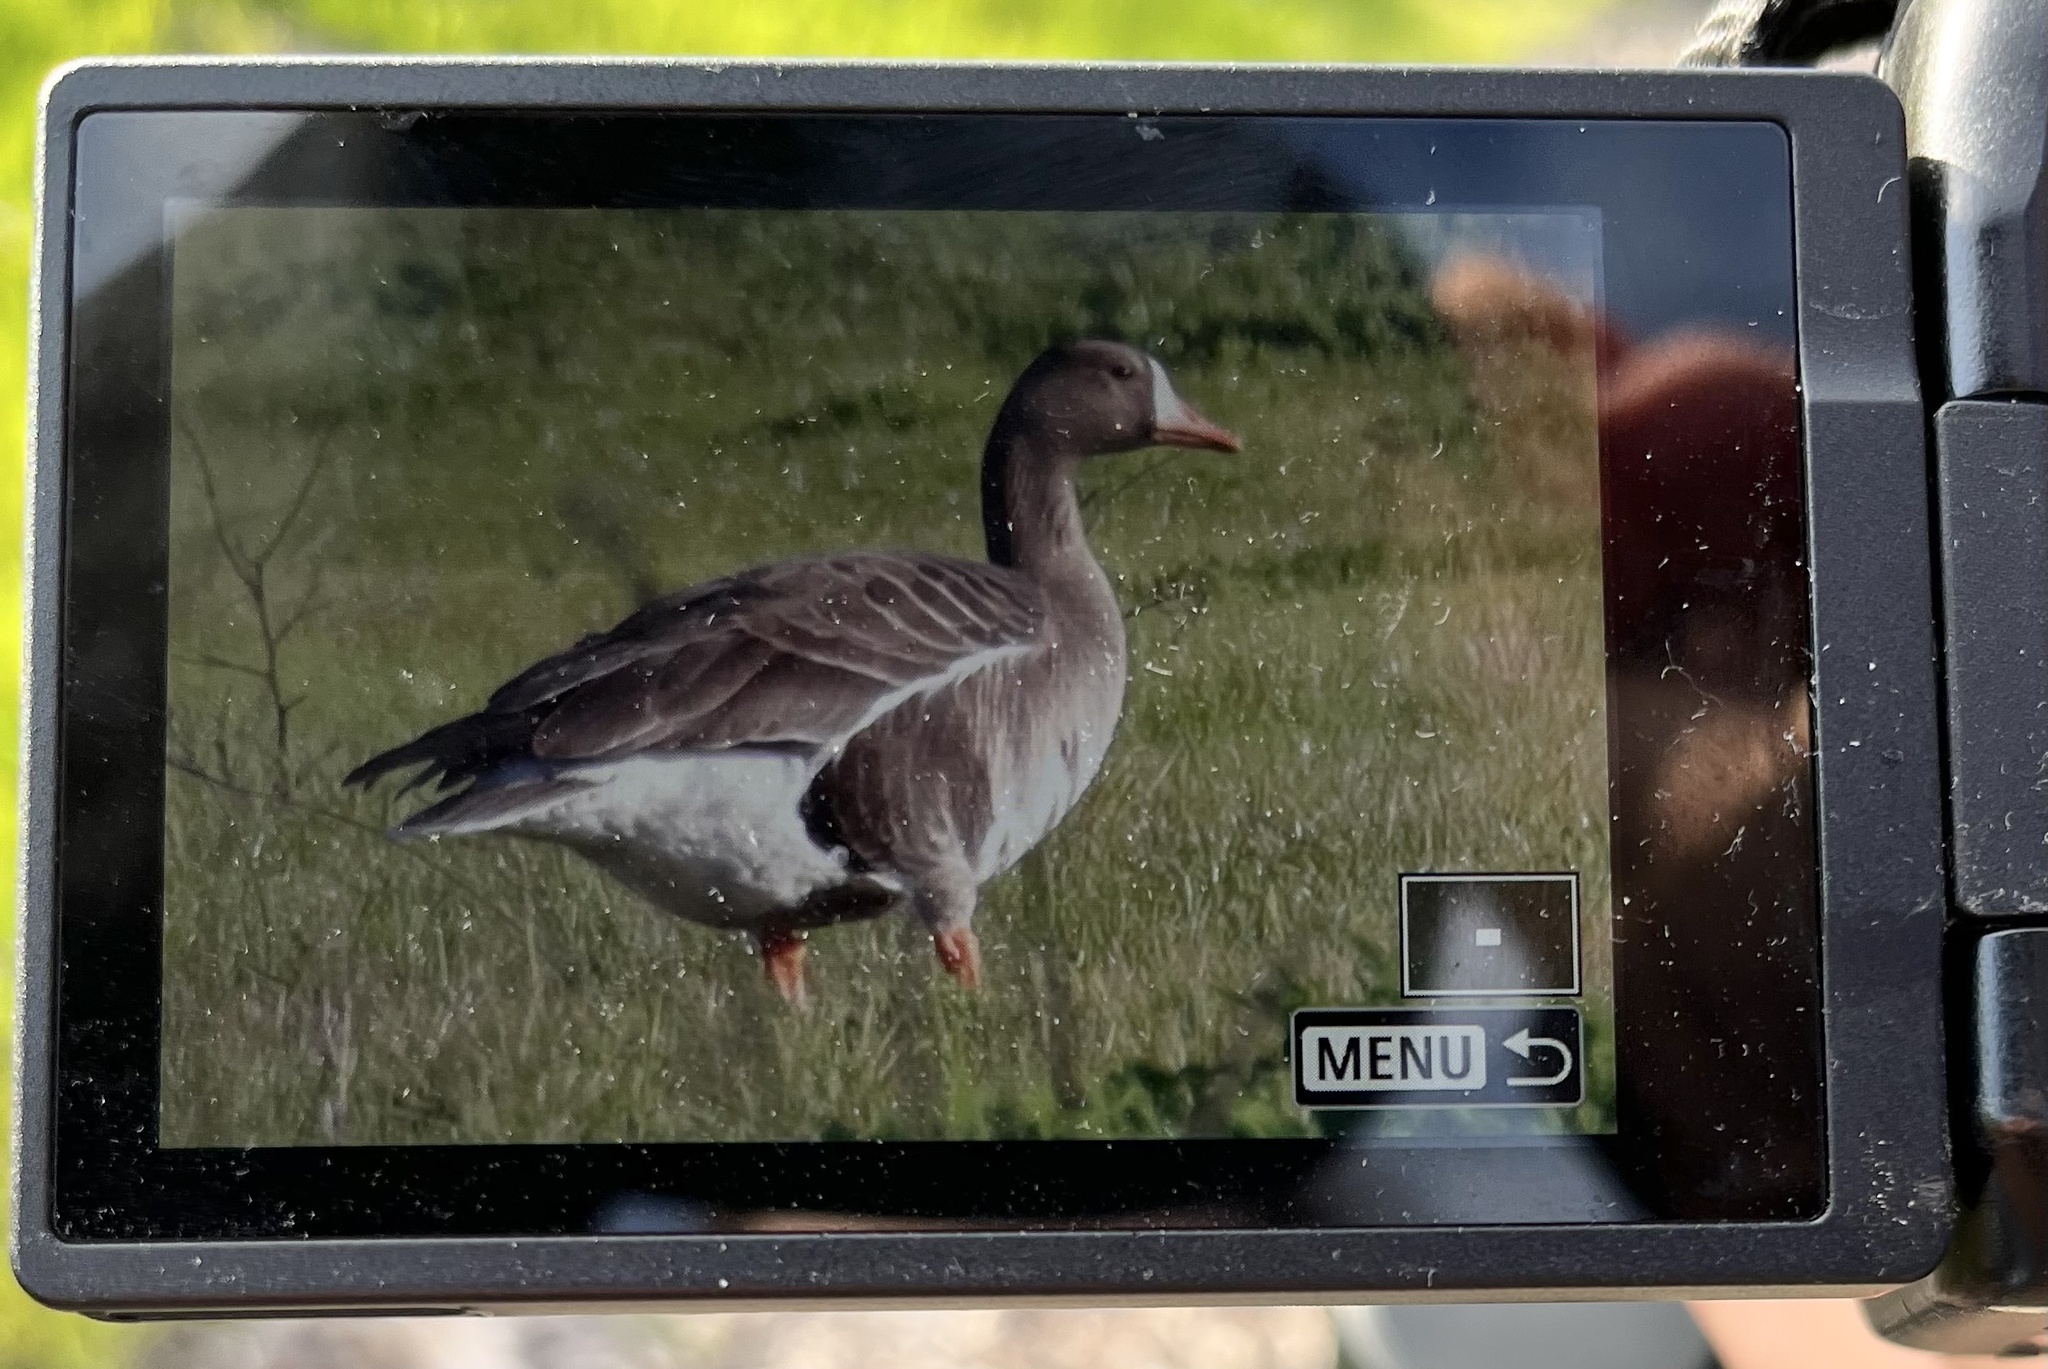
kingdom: Animalia
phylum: Chordata
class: Aves
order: Anseriformes
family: Anatidae
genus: Anser
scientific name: Anser albifrons
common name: Greater white-fronted goose
